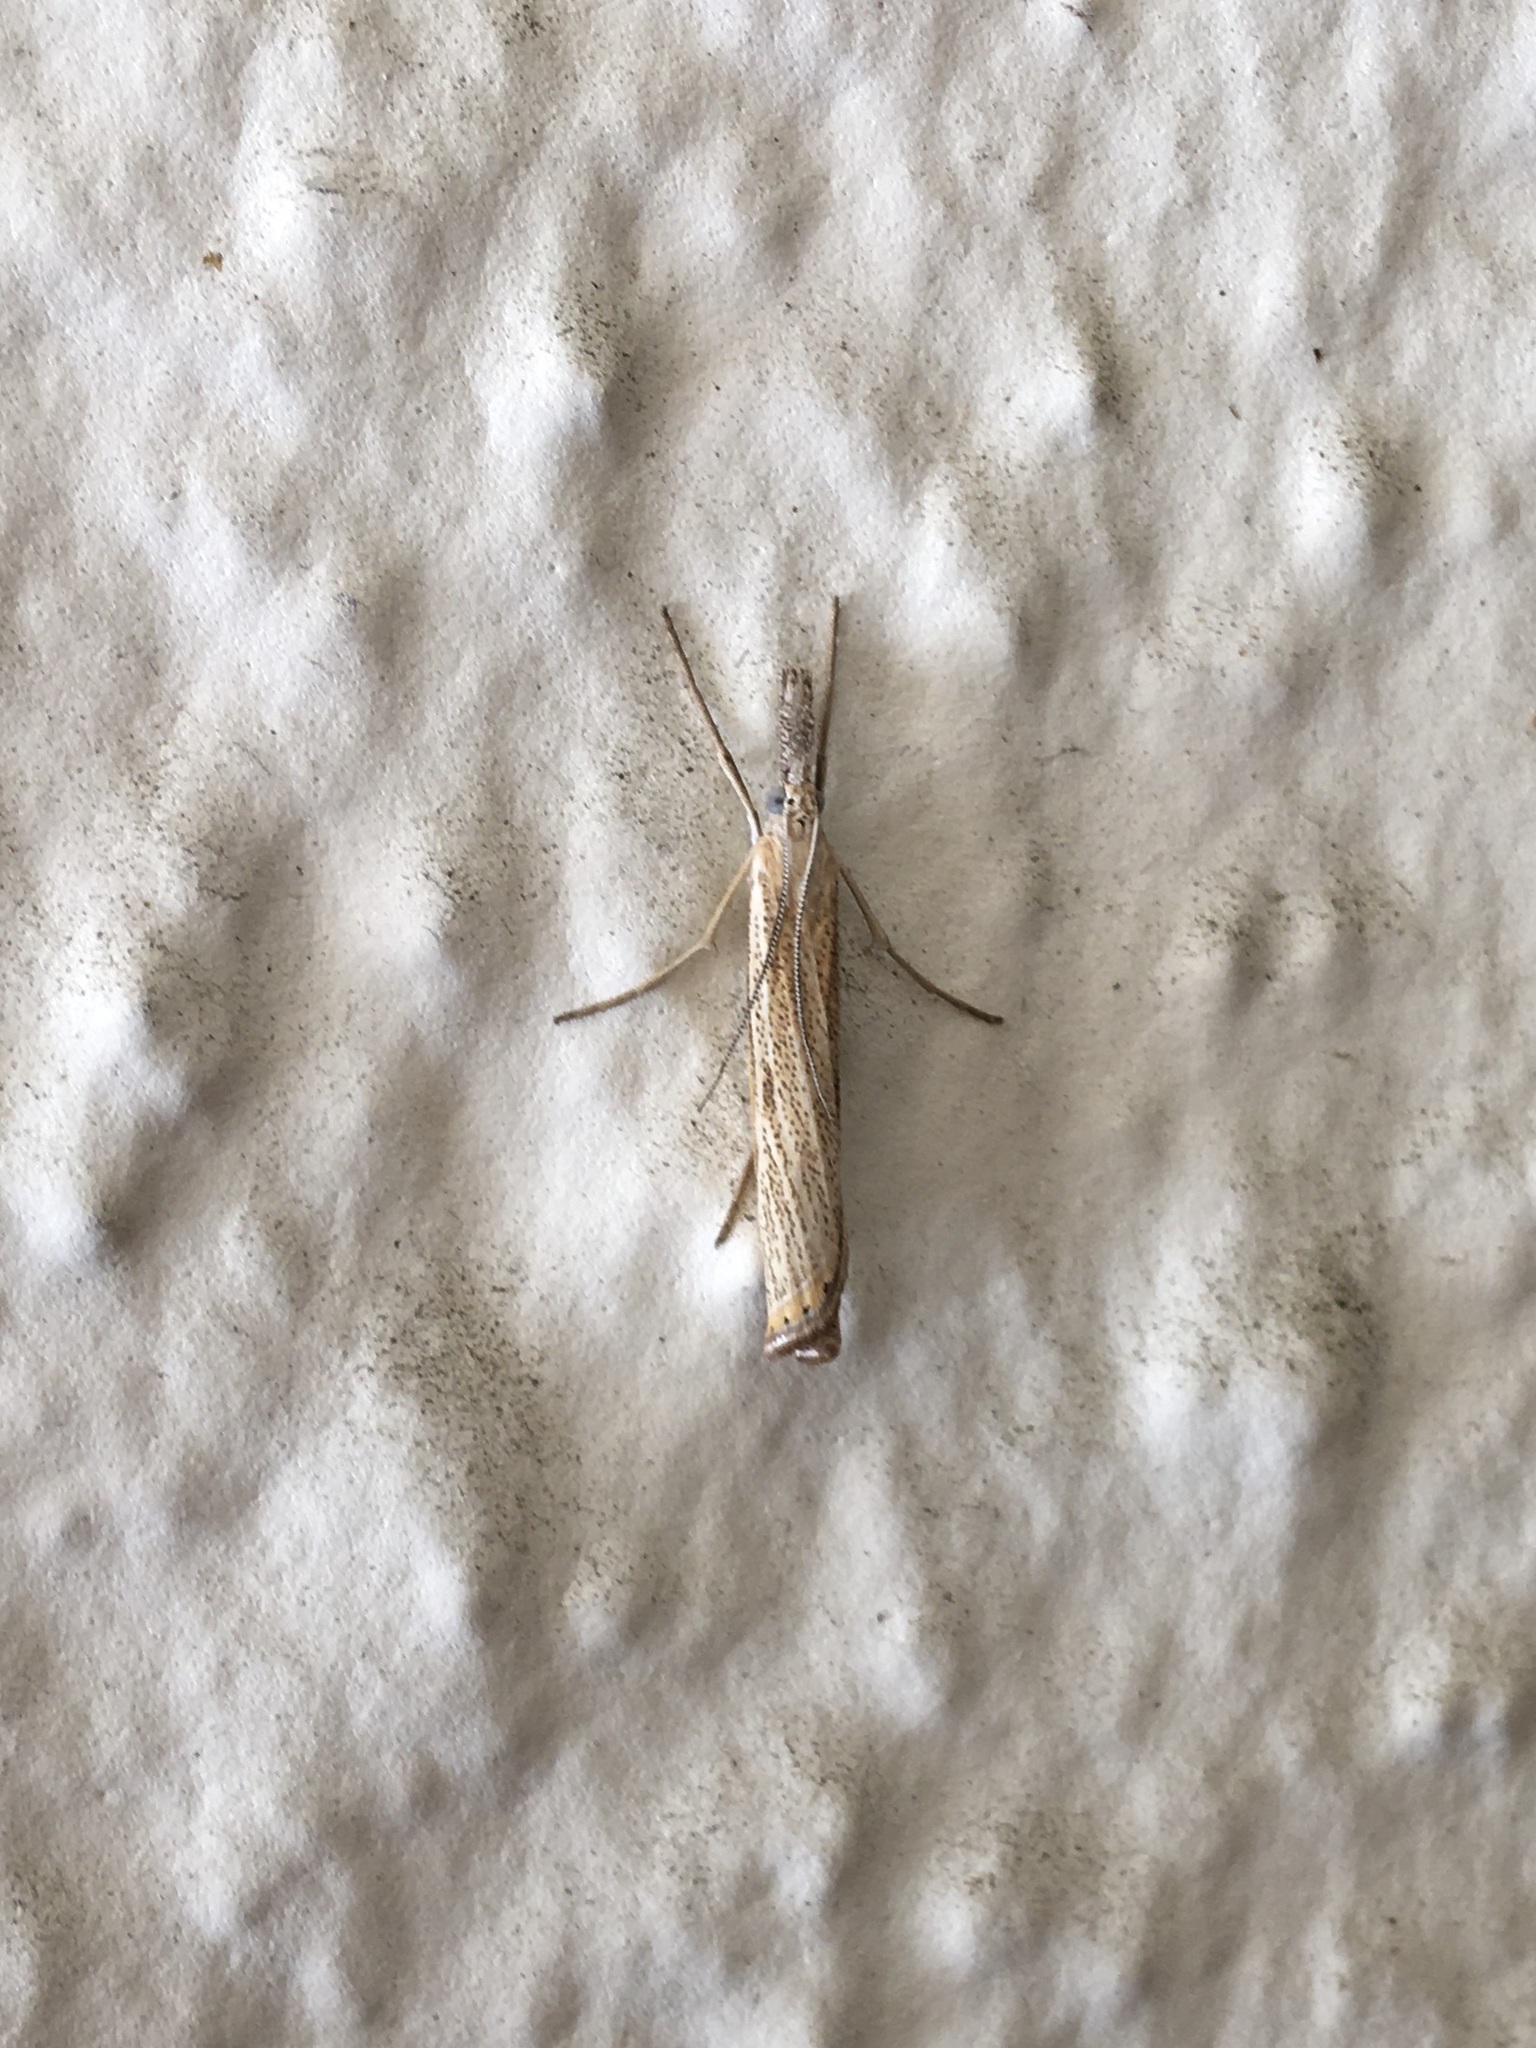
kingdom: Animalia
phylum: Arthropoda
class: Insecta
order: Lepidoptera
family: Crambidae
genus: Agriphila
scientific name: Agriphila attenuatus
